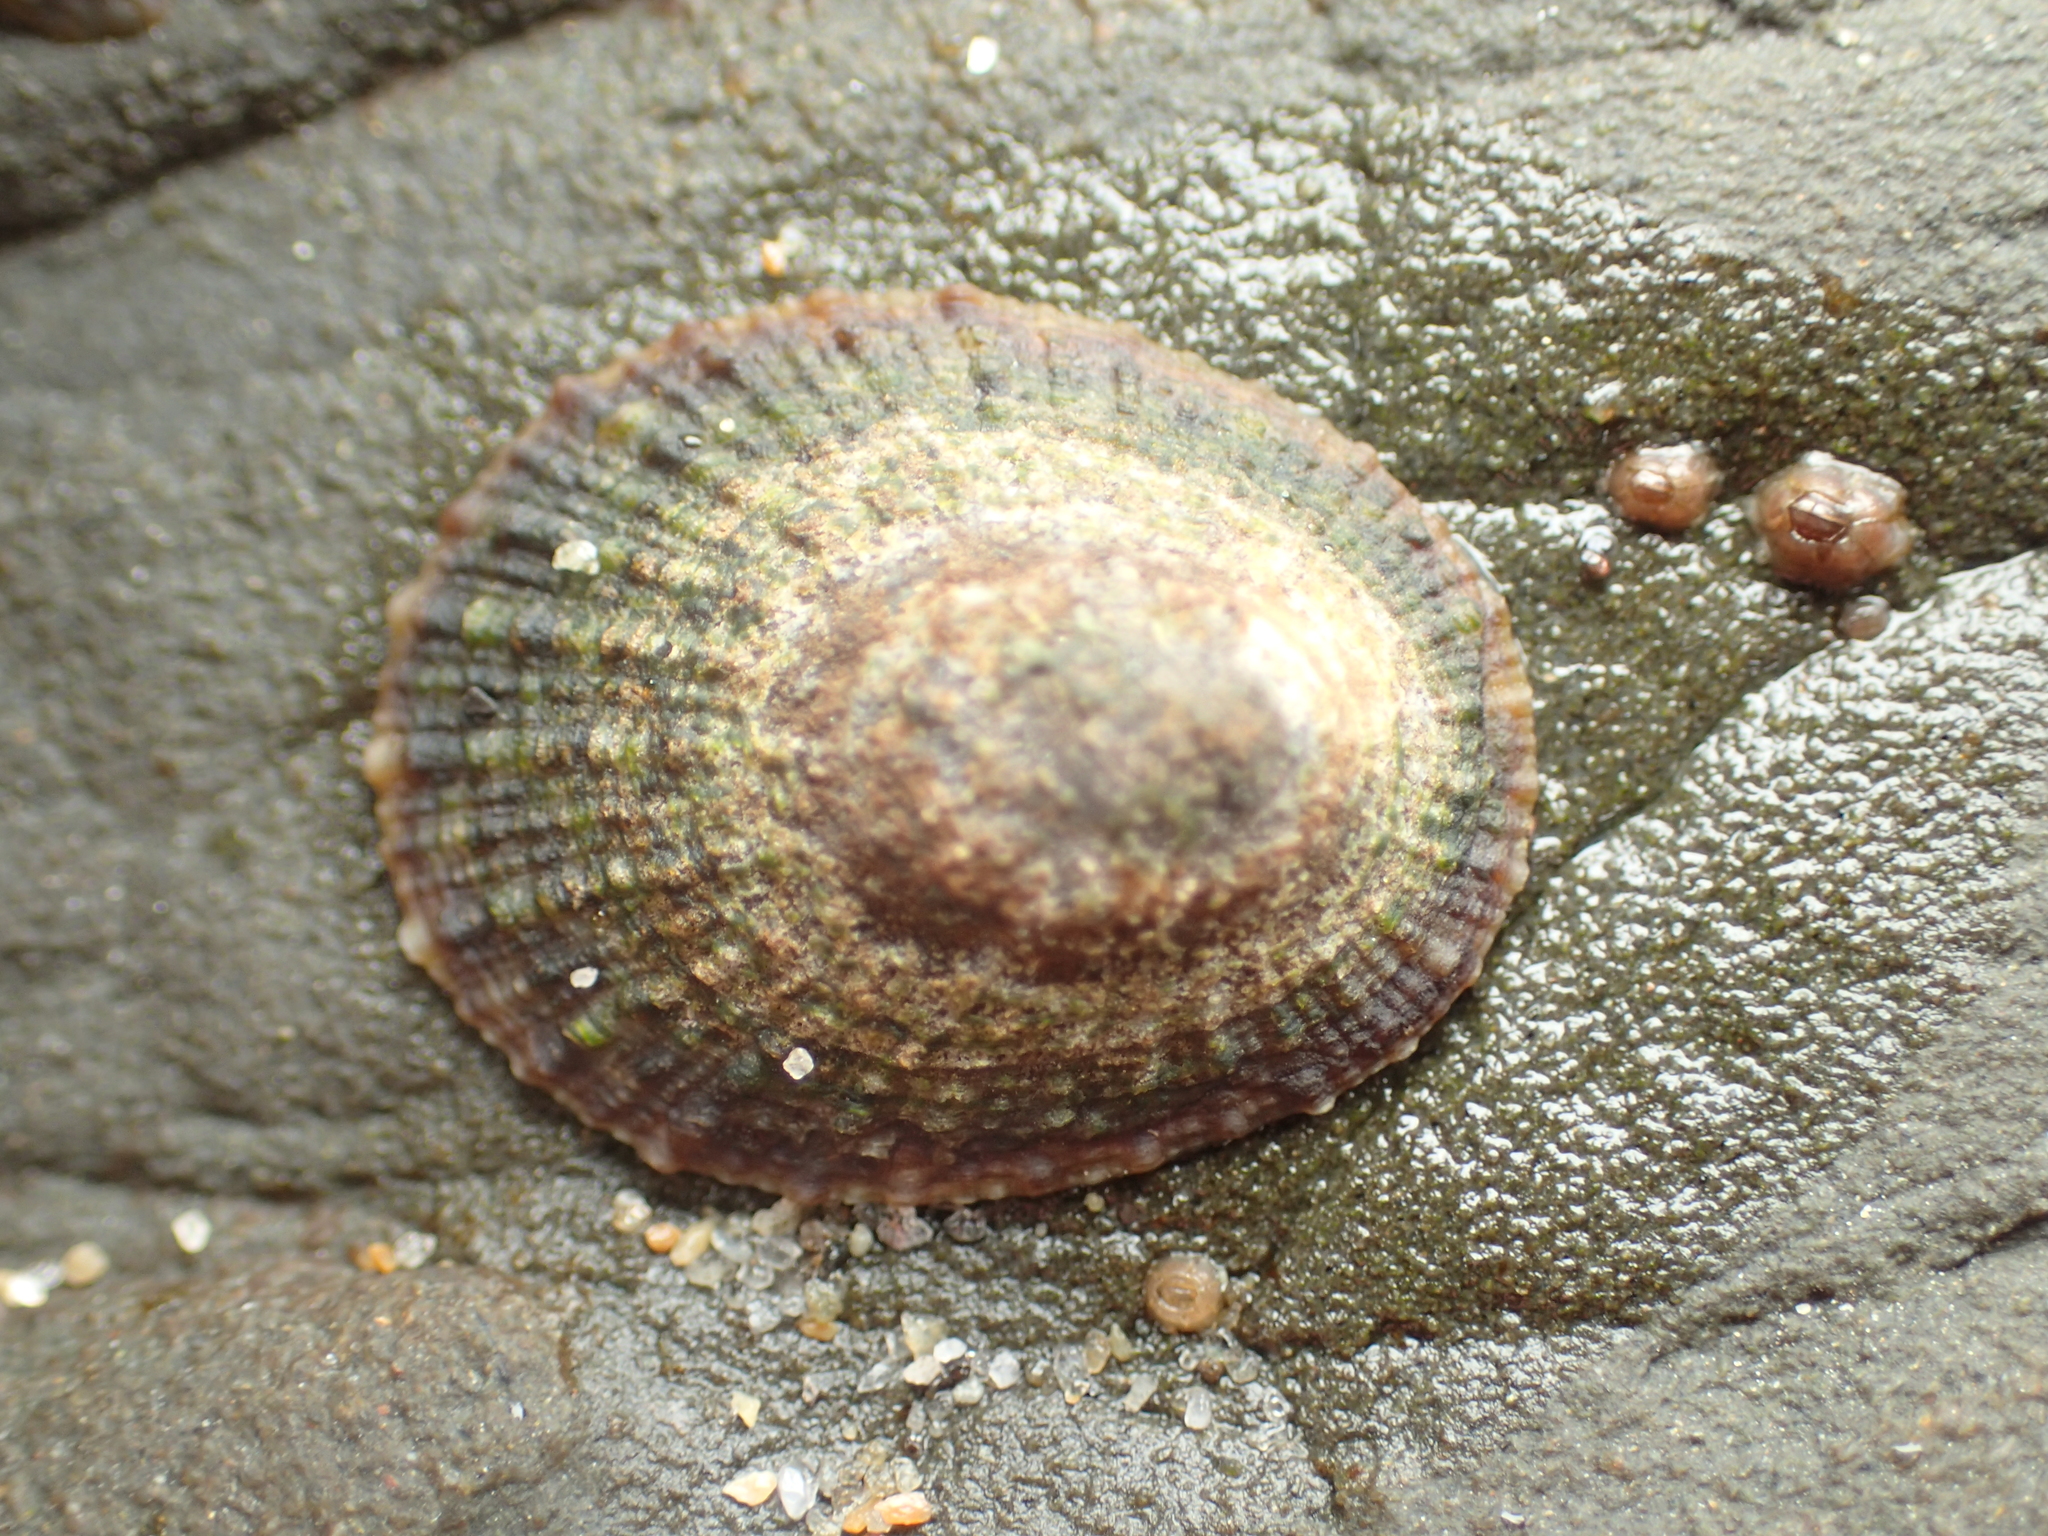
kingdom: Animalia
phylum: Mollusca
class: Gastropoda
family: Lottiidae
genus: Lottia
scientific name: Lottia limatula
